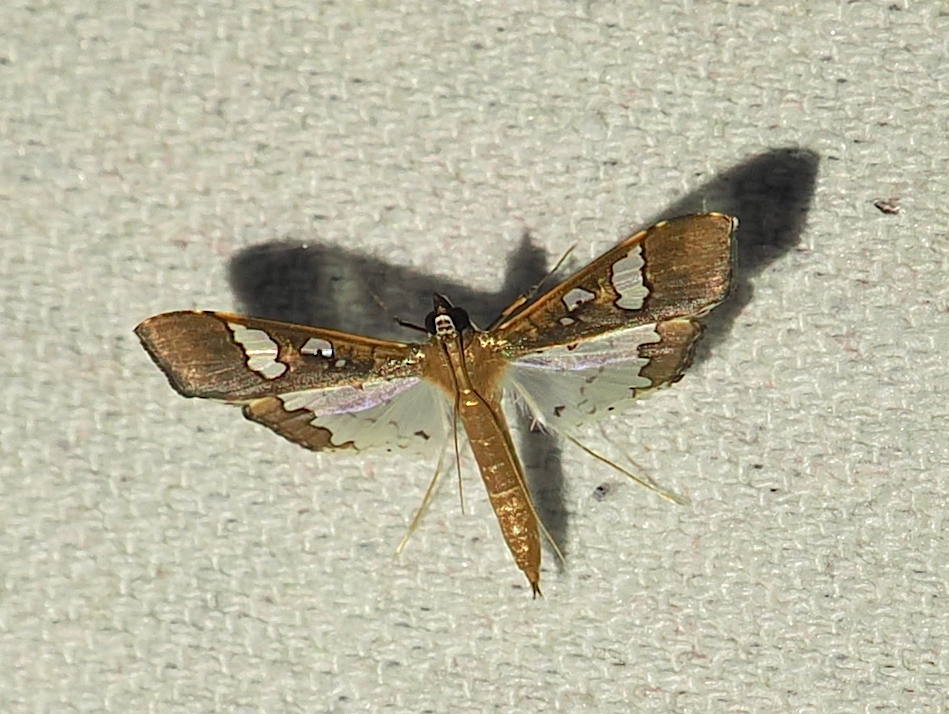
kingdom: Animalia
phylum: Arthropoda
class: Insecta
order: Lepidoptera
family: Crambidae
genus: Maruca
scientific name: Maruca vitrata
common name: Maruca pod borer
